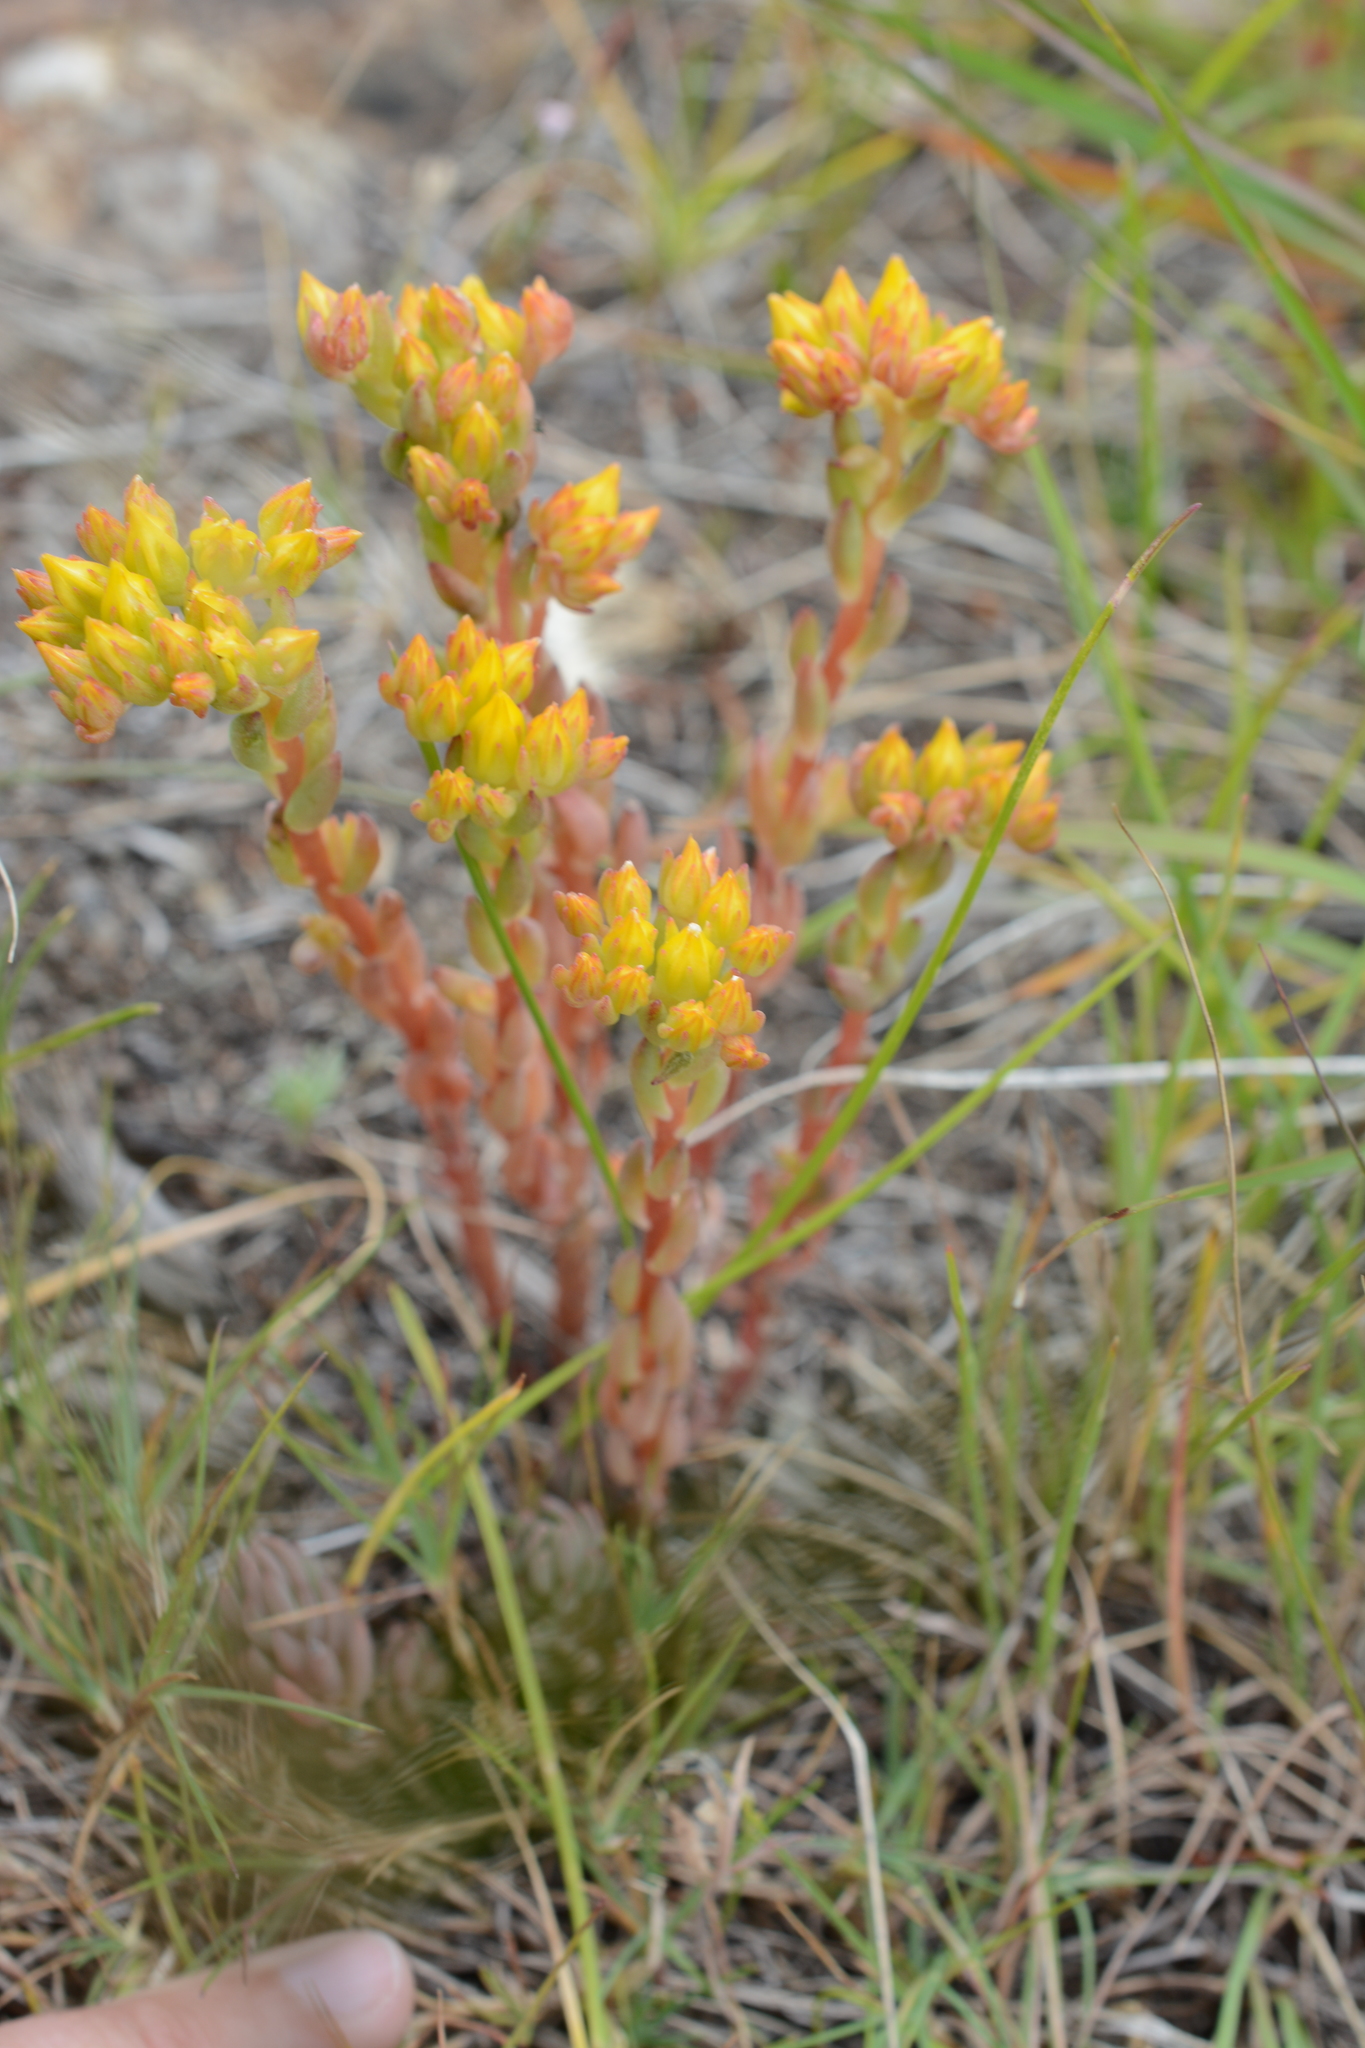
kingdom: Plantae
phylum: Tracheophyta
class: Magnoliopsida
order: Saxifragales
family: Crassulaceae
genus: Sedum
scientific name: Sedum lanceolatum
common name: Common stonecrop
